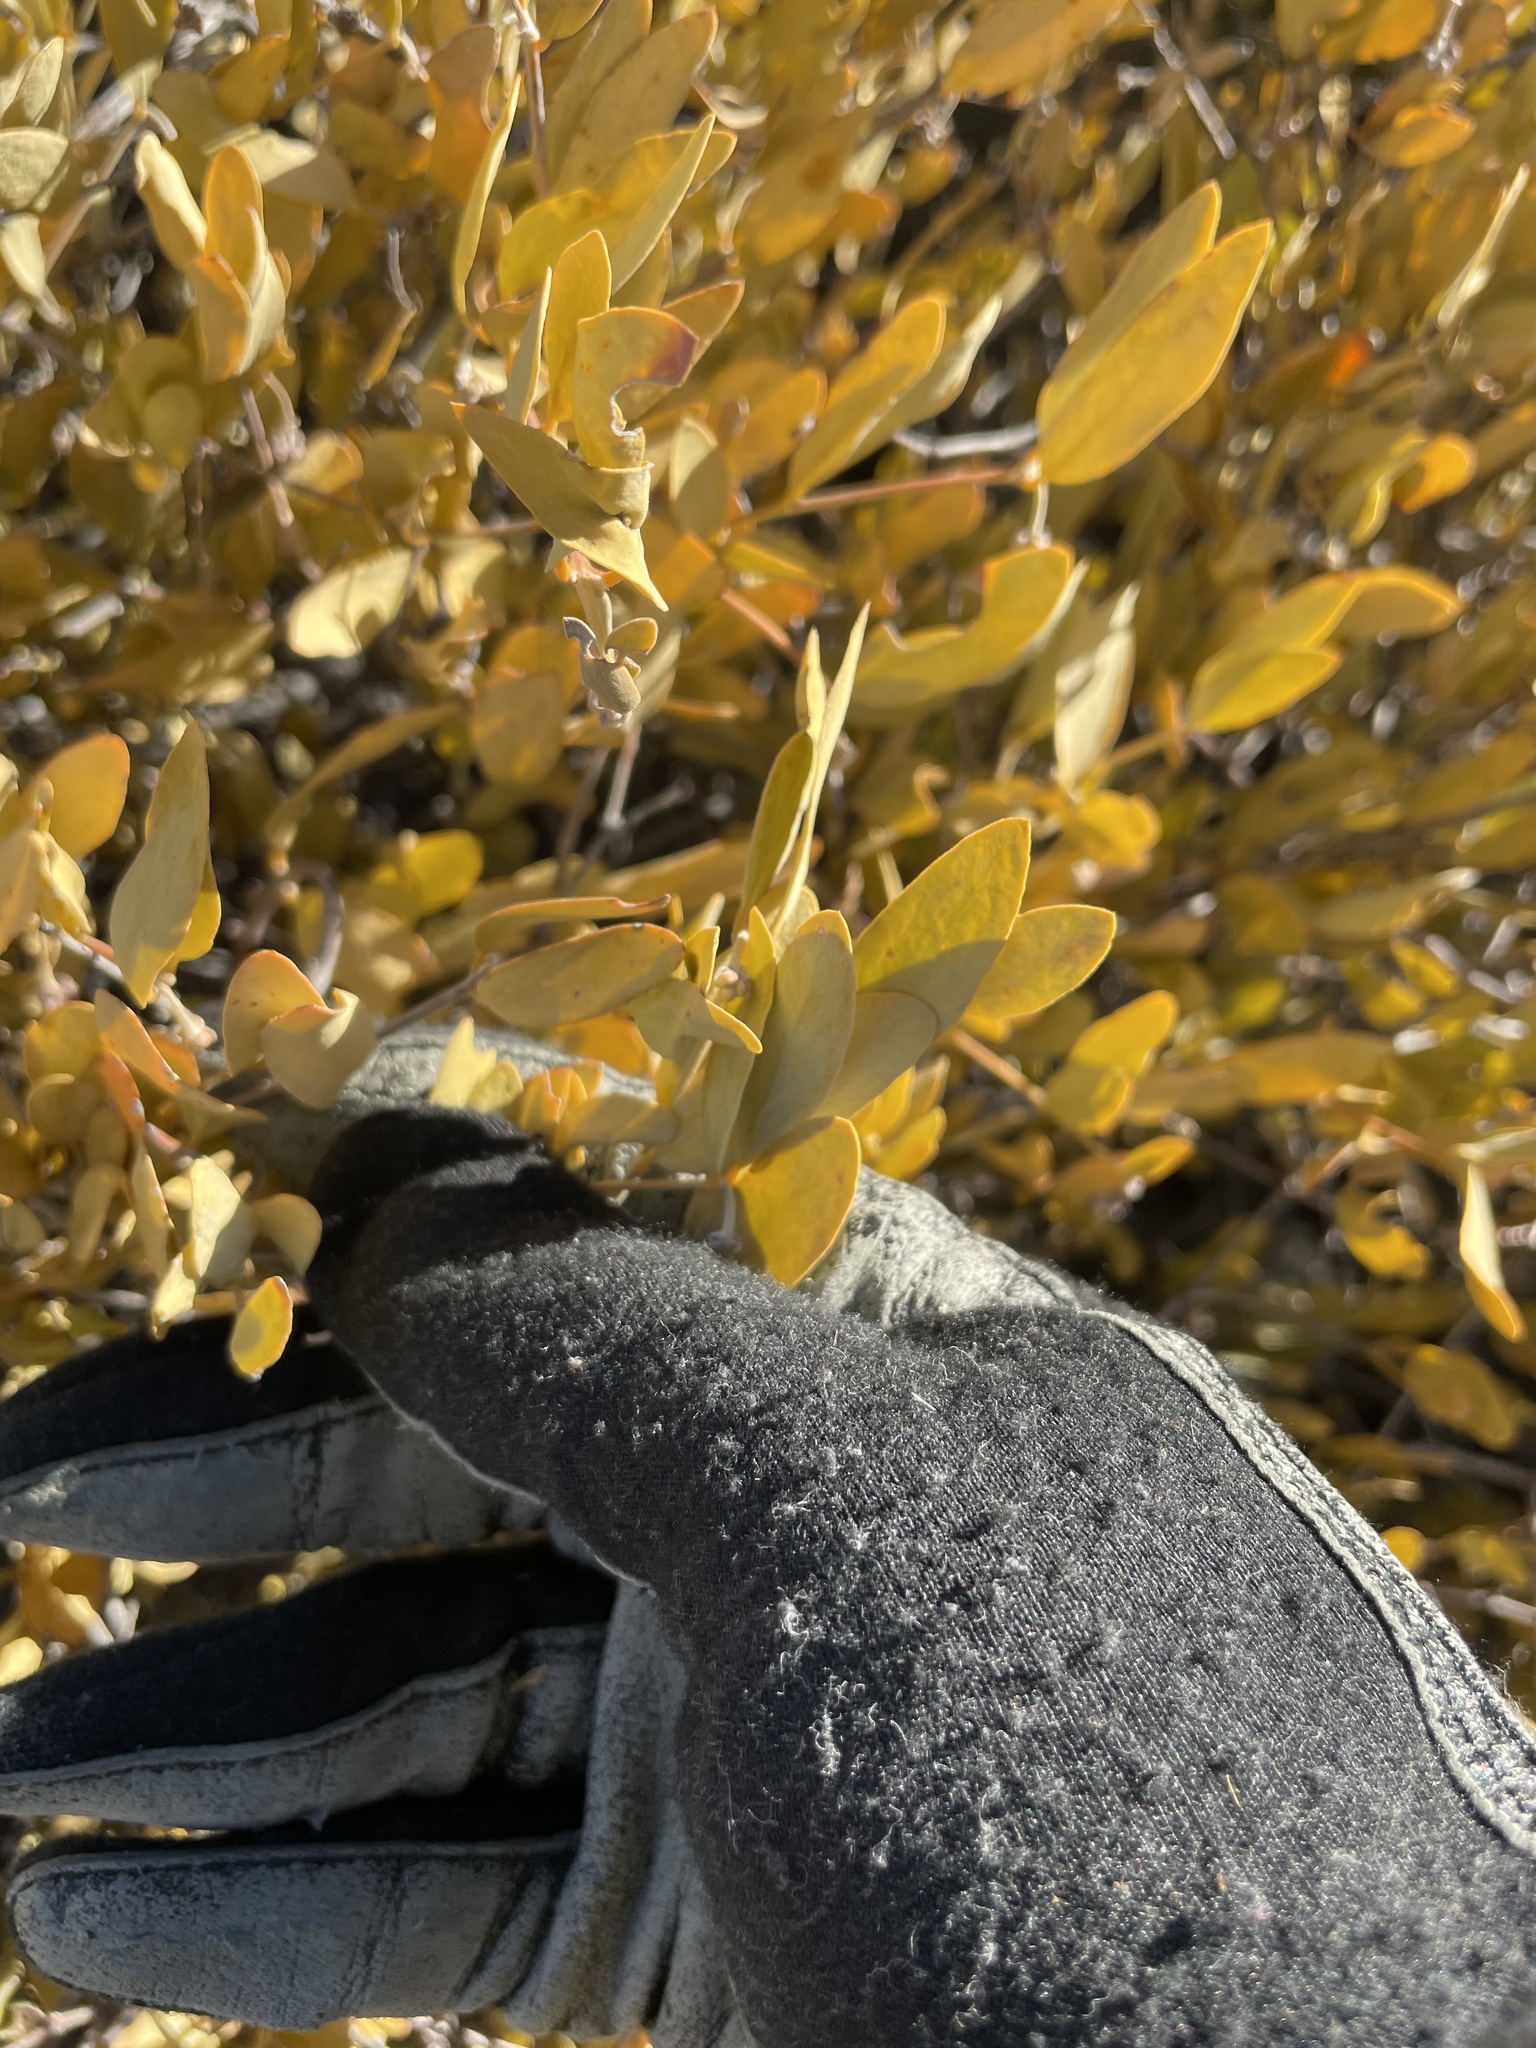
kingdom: Plantae
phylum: Tracheophyta
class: Magnoliopsida
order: Caryophyllales
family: Simmondsiaceae
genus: Simmondsia
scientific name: Simmondsia chinensis
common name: Jojoba
